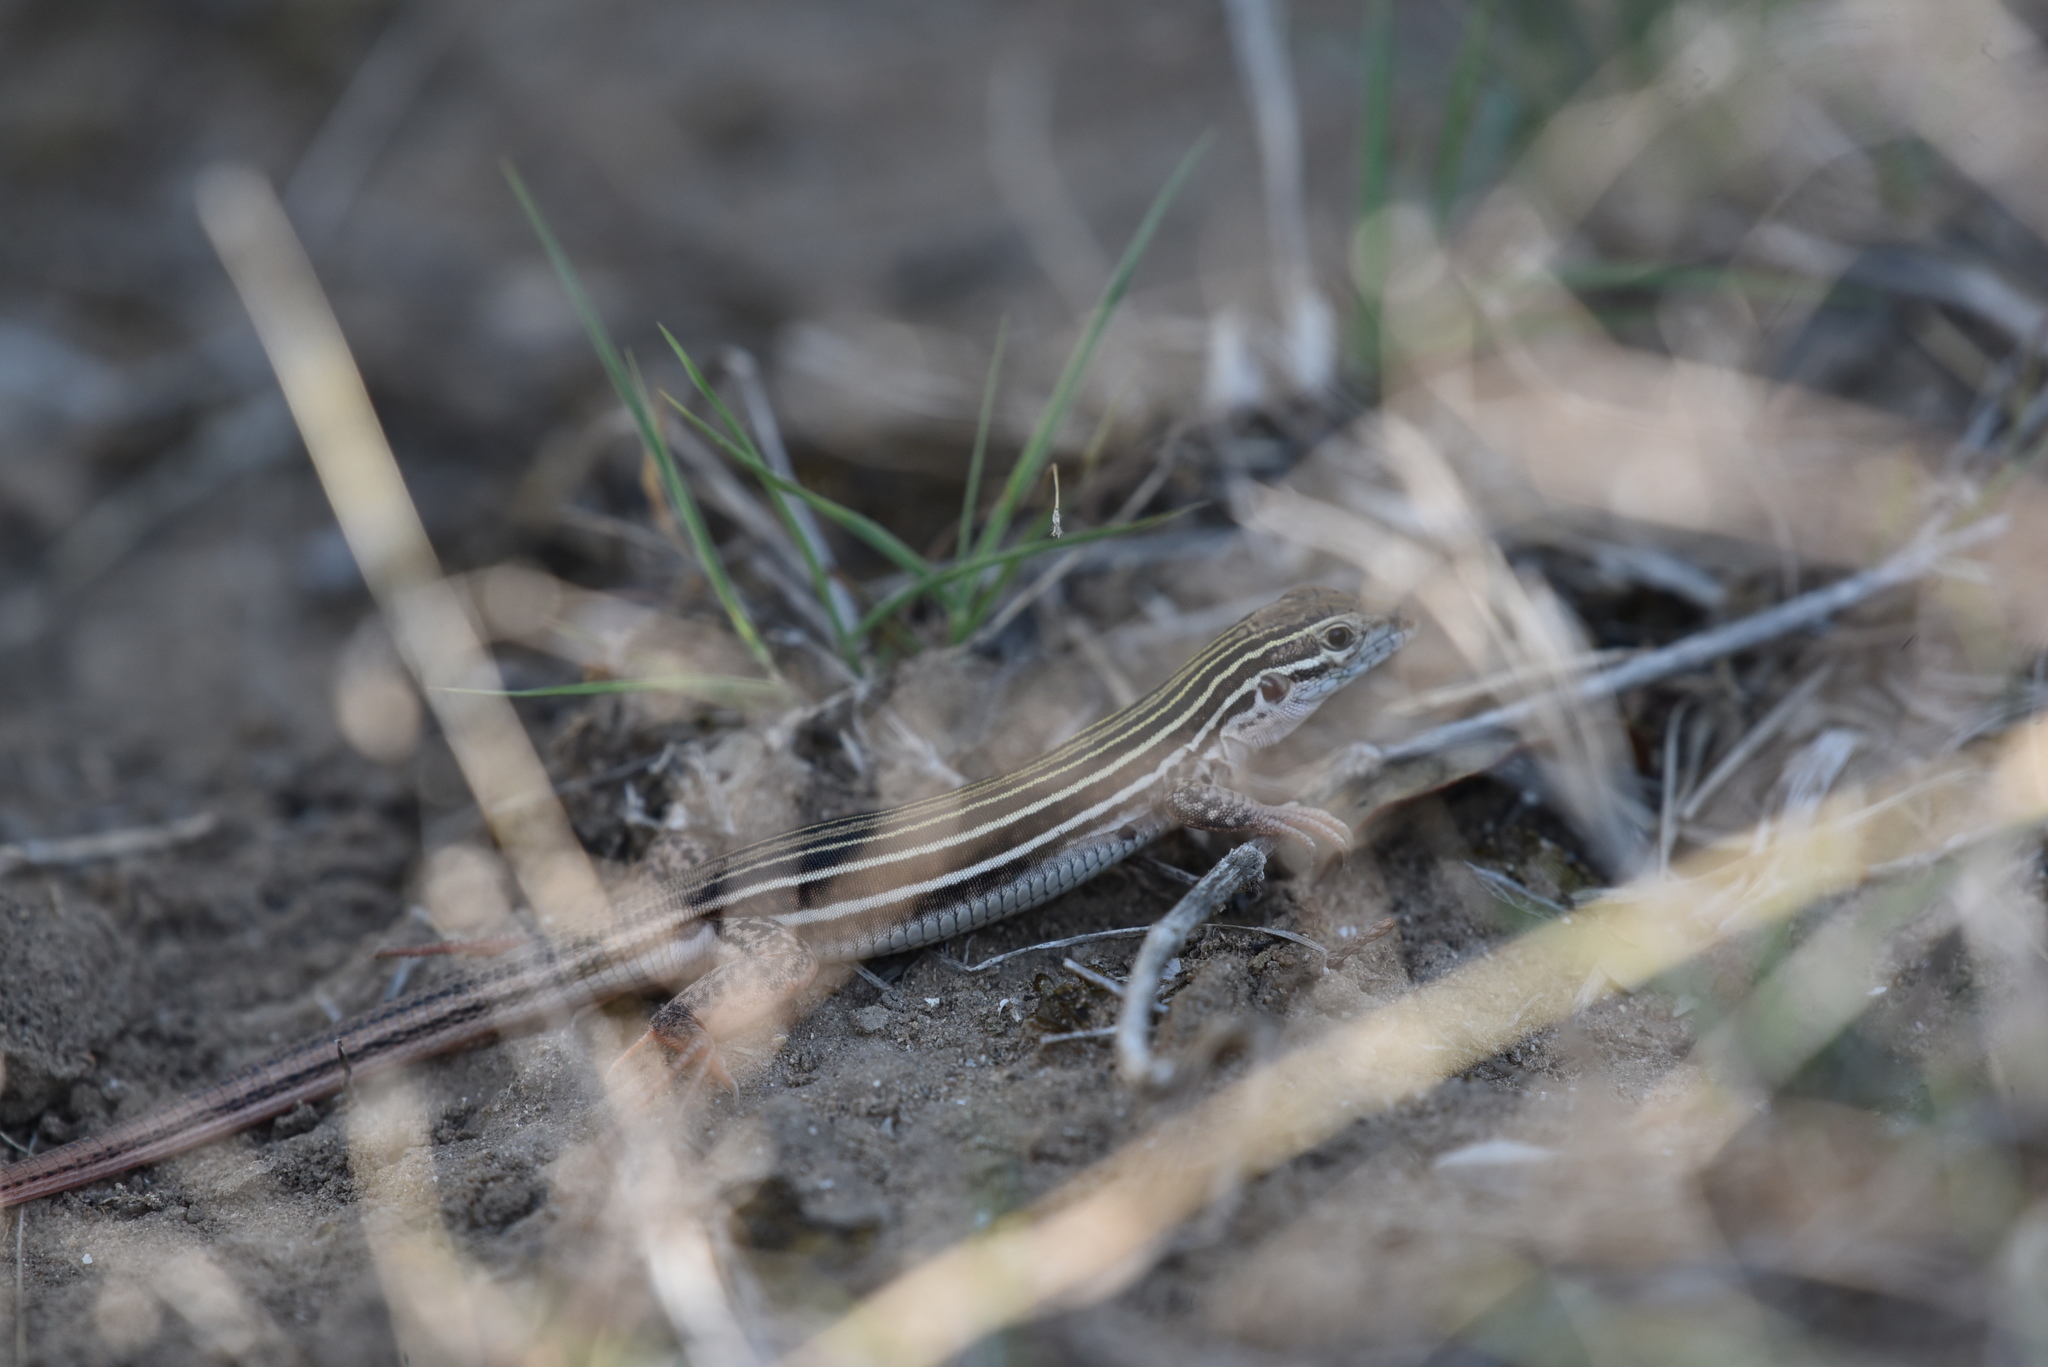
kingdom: Animalia
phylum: Chordata
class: Squamata
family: Teiidae
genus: Aspidoscelis
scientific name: Aspidoscelis gularis
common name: Eastern spotted whiptail
